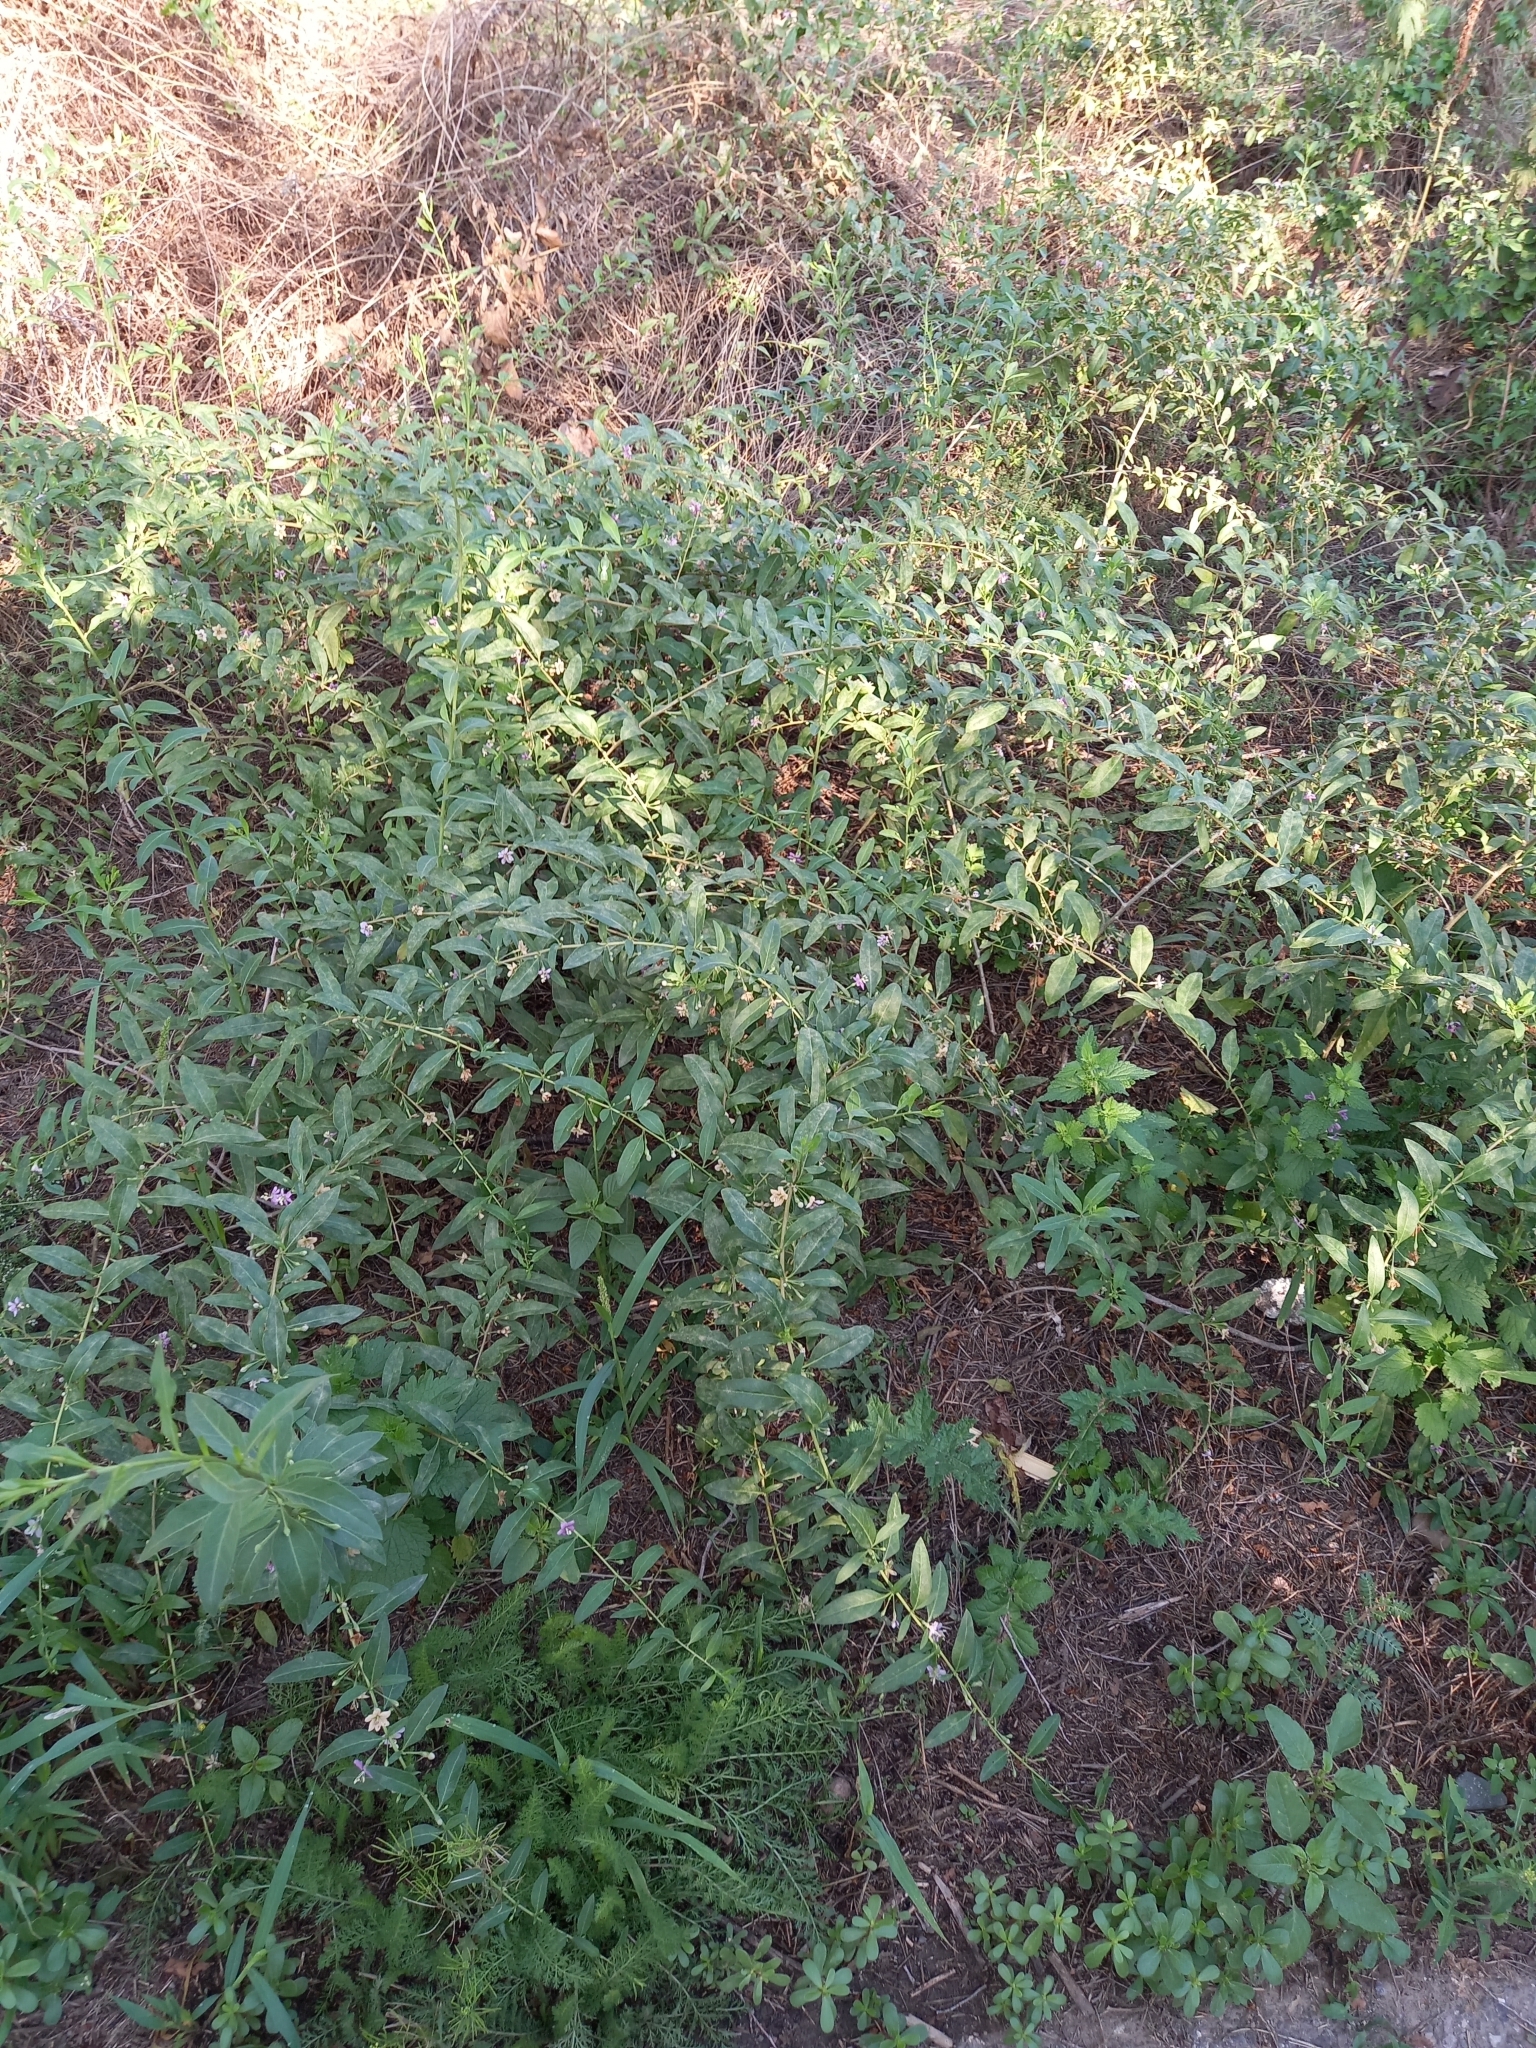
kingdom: Plantae
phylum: Tracheophyta
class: Magnoliopsida
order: Solanales
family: Solanaceae
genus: Lycium
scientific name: Lycium barbarum
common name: Duke of argyll's teaplant
